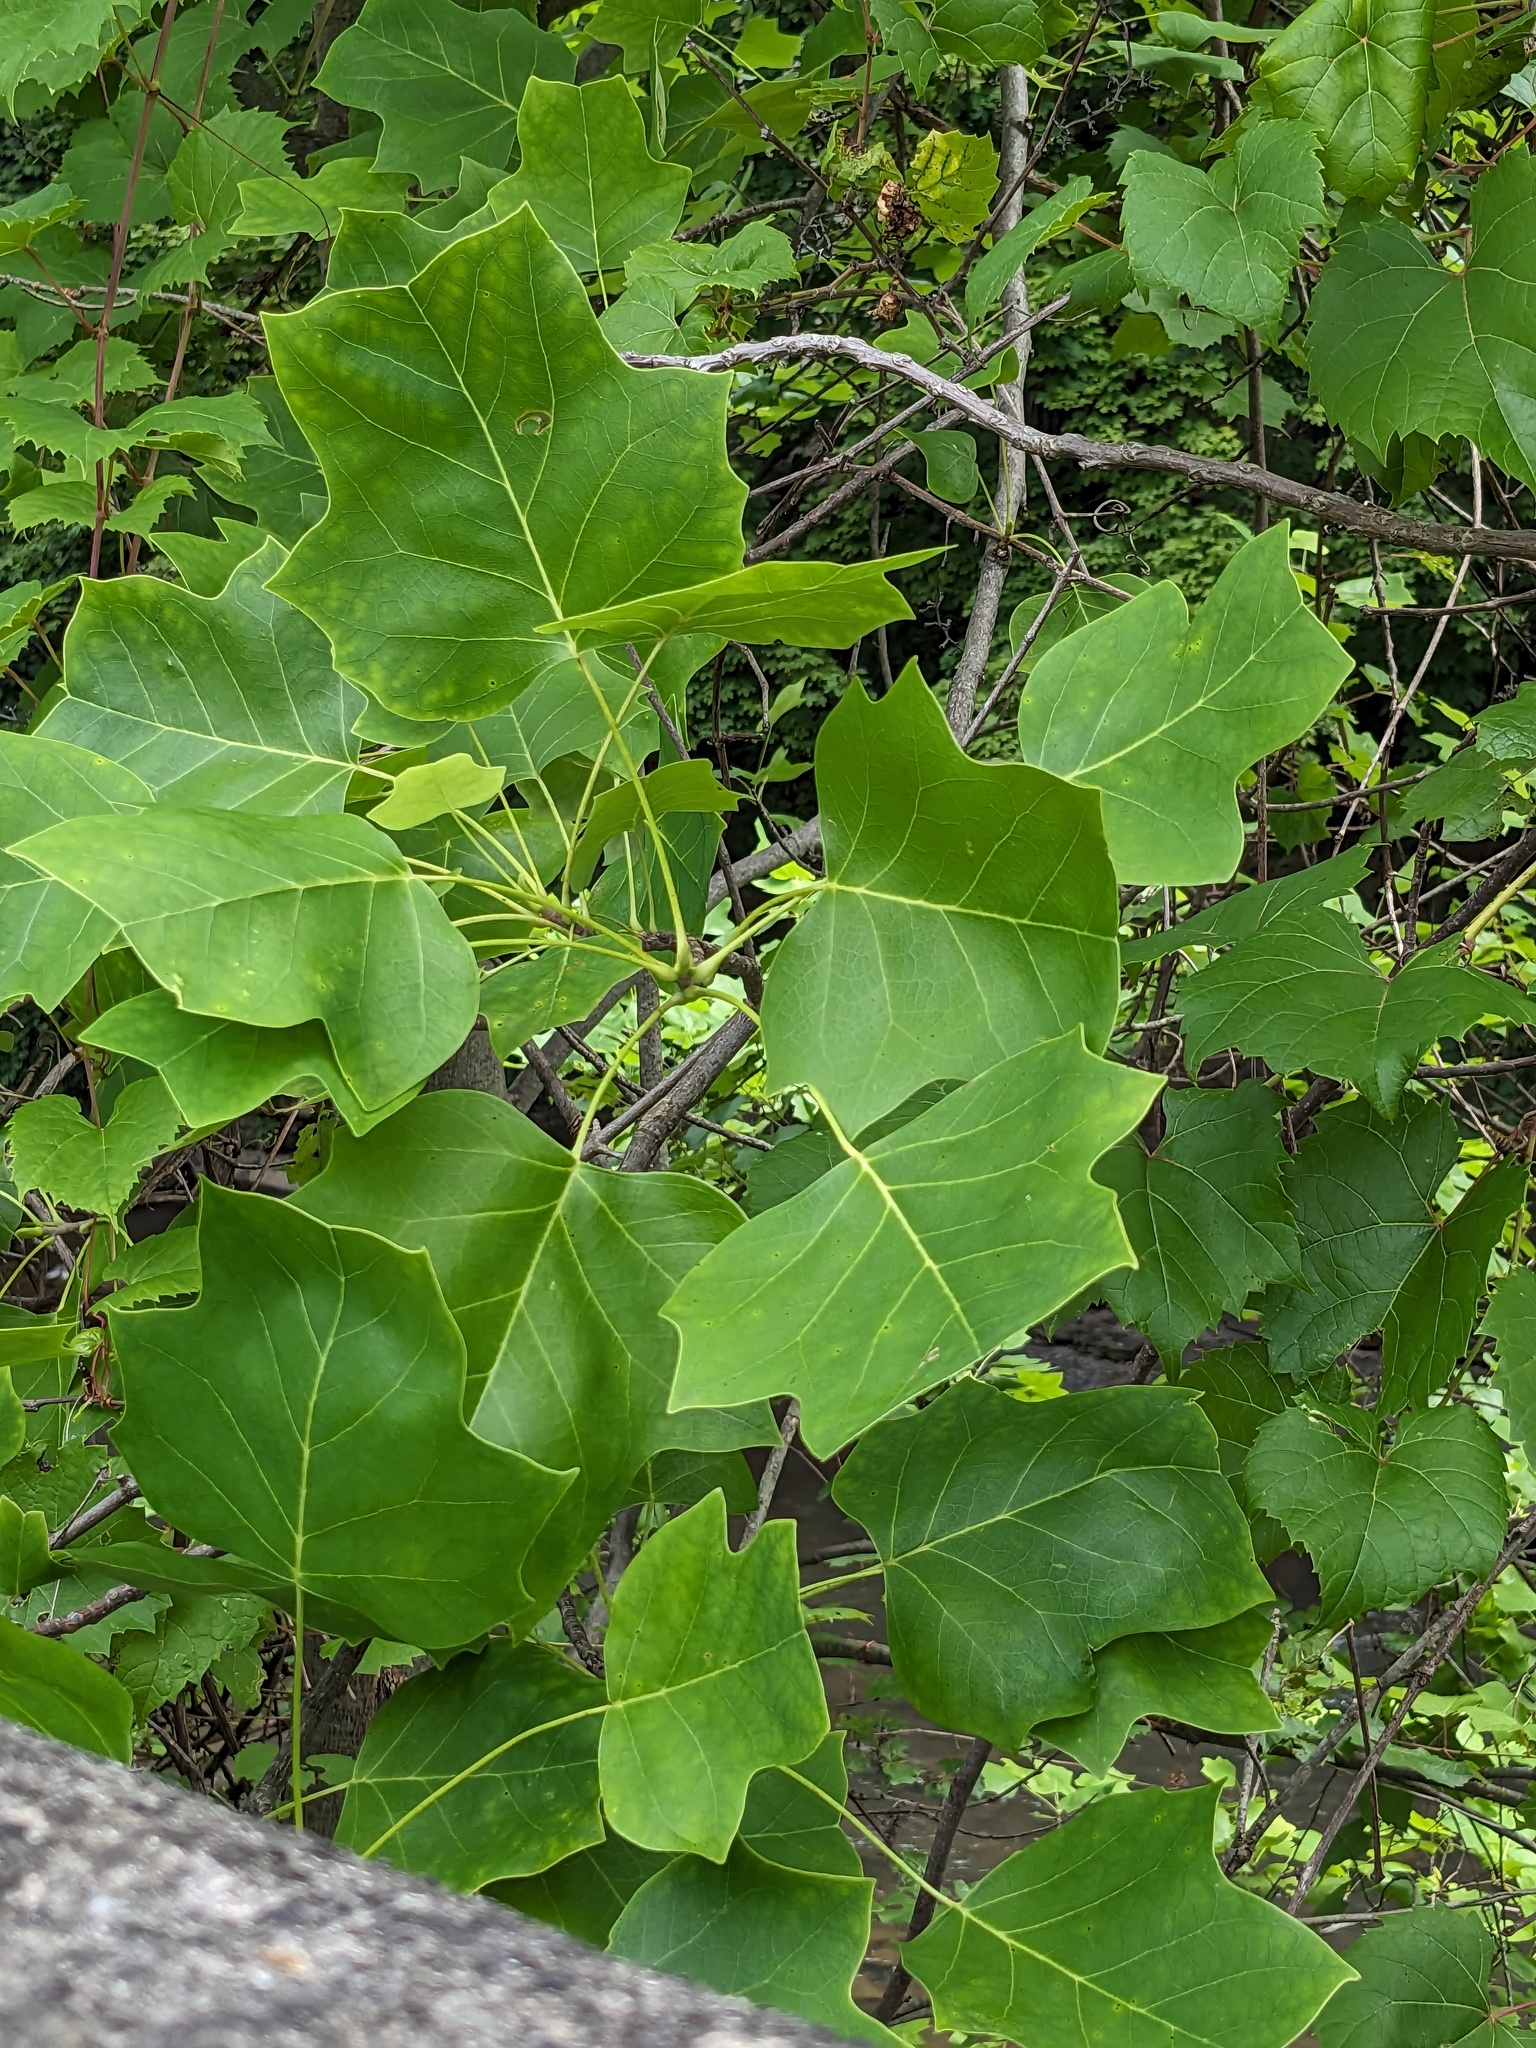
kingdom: Plantae
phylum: Tracheophyta
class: Magnoliopsida
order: Magnoliales
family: Magnoliaceae
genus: Liriodendron
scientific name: Liriodendron tulipifera
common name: Tulip tree
